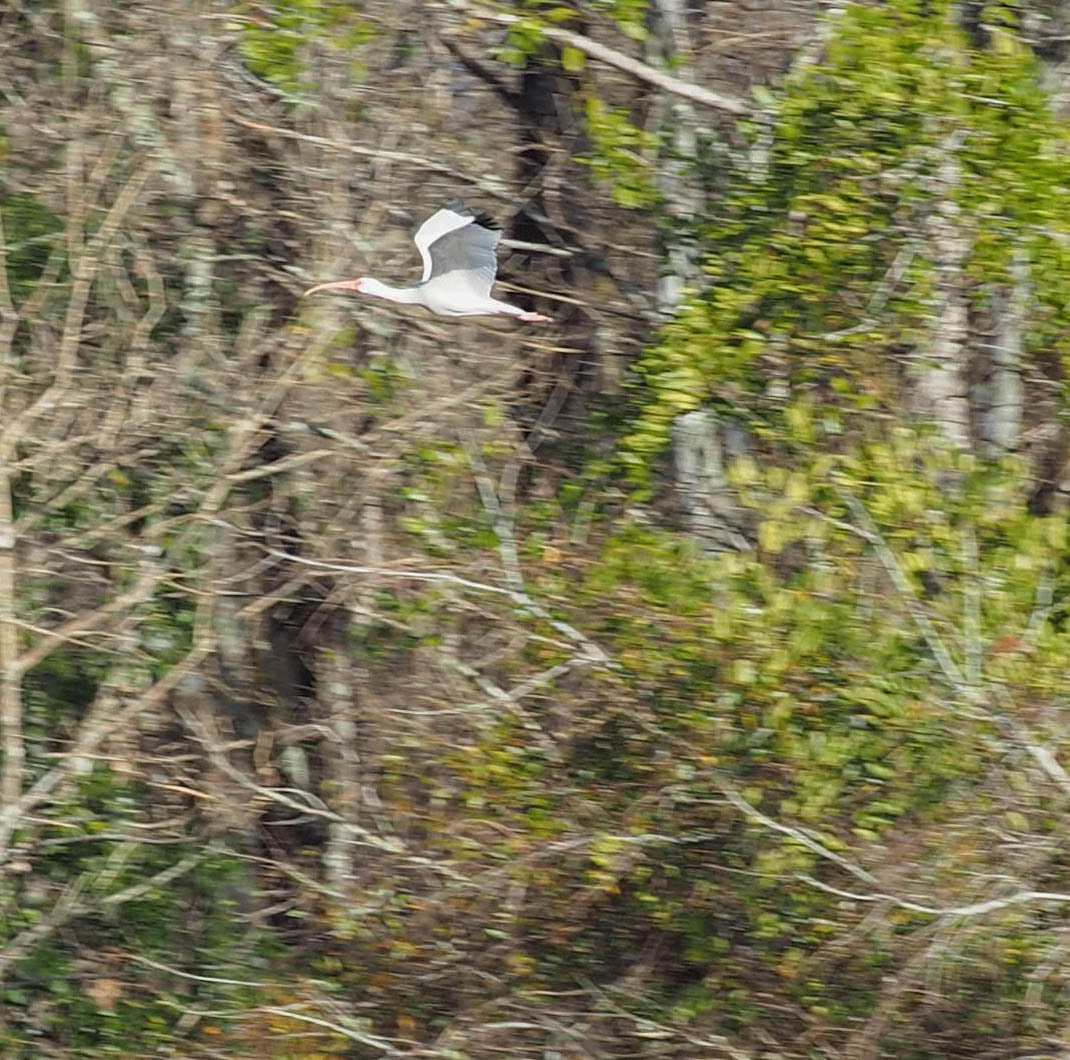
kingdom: Animalia
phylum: Chordata
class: Aves
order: Pelecaniformes
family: Threskiornithidae
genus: Eudocimus
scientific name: Eudocimus albus
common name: White ibis
